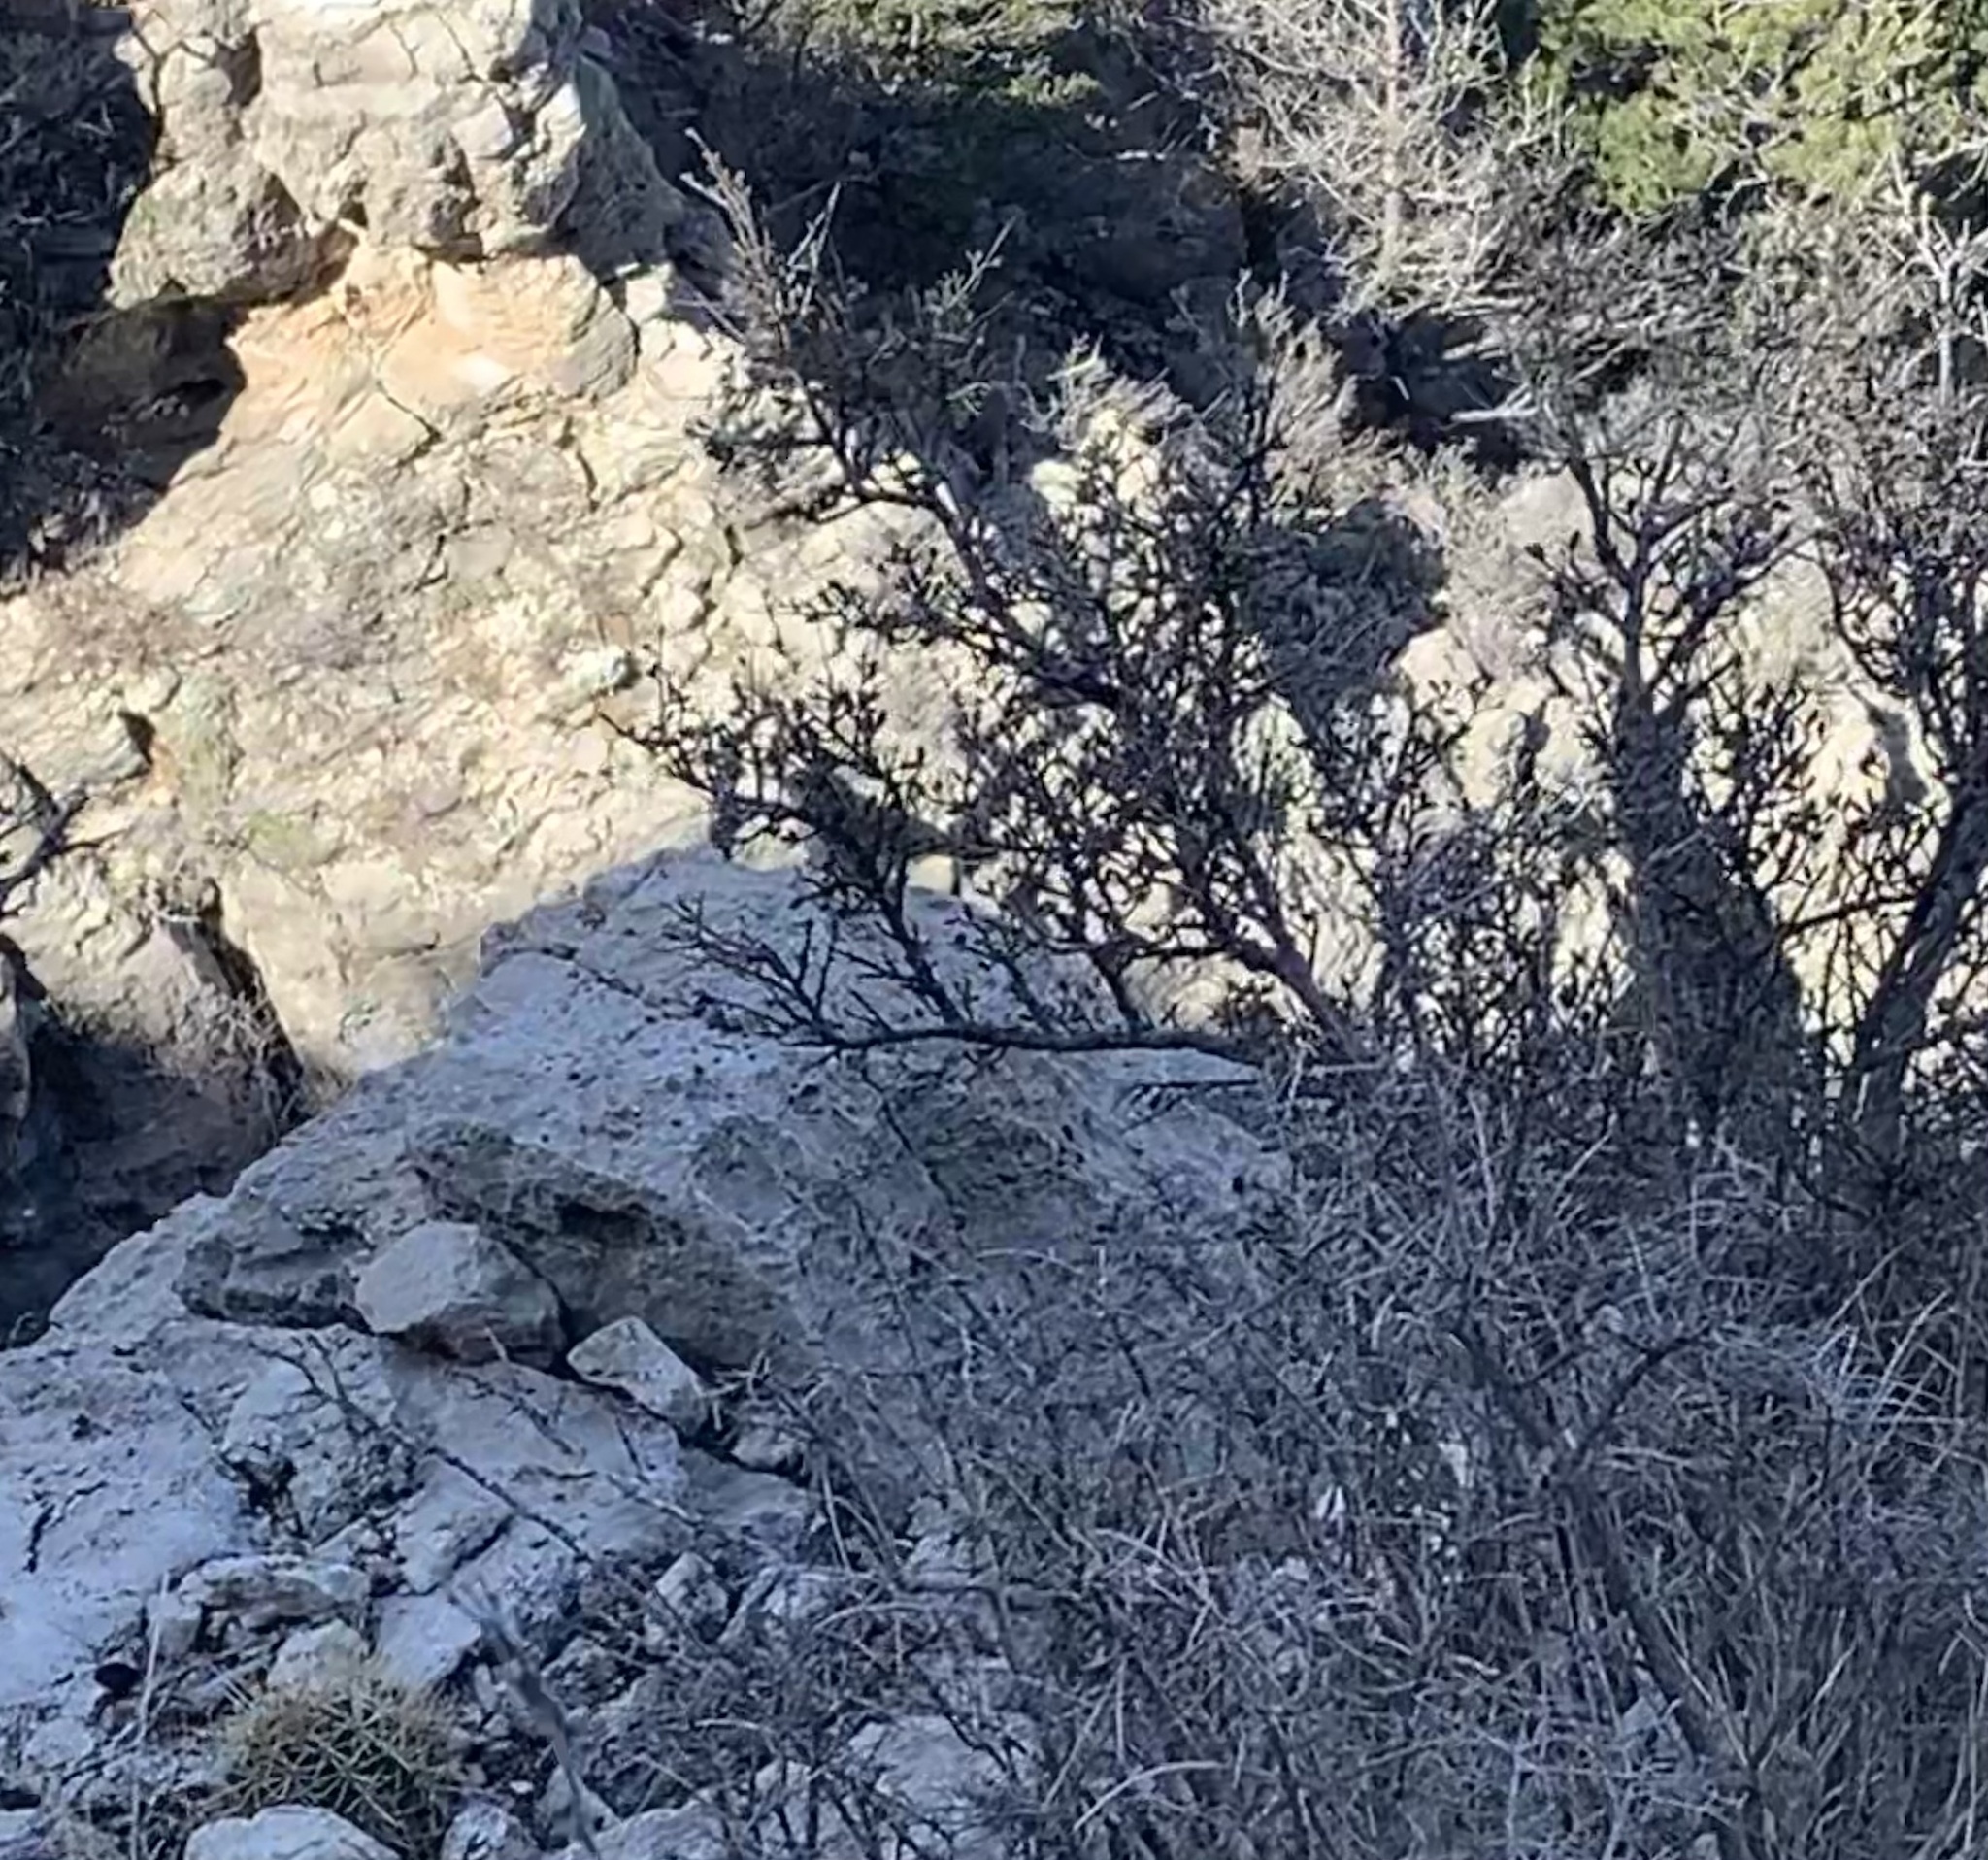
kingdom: Animalia
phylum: Chordata
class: Aves
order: Passeriformes
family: Troglodytidae
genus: Salpinctes
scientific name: Salpinctes obsoletus
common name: Rock wren
